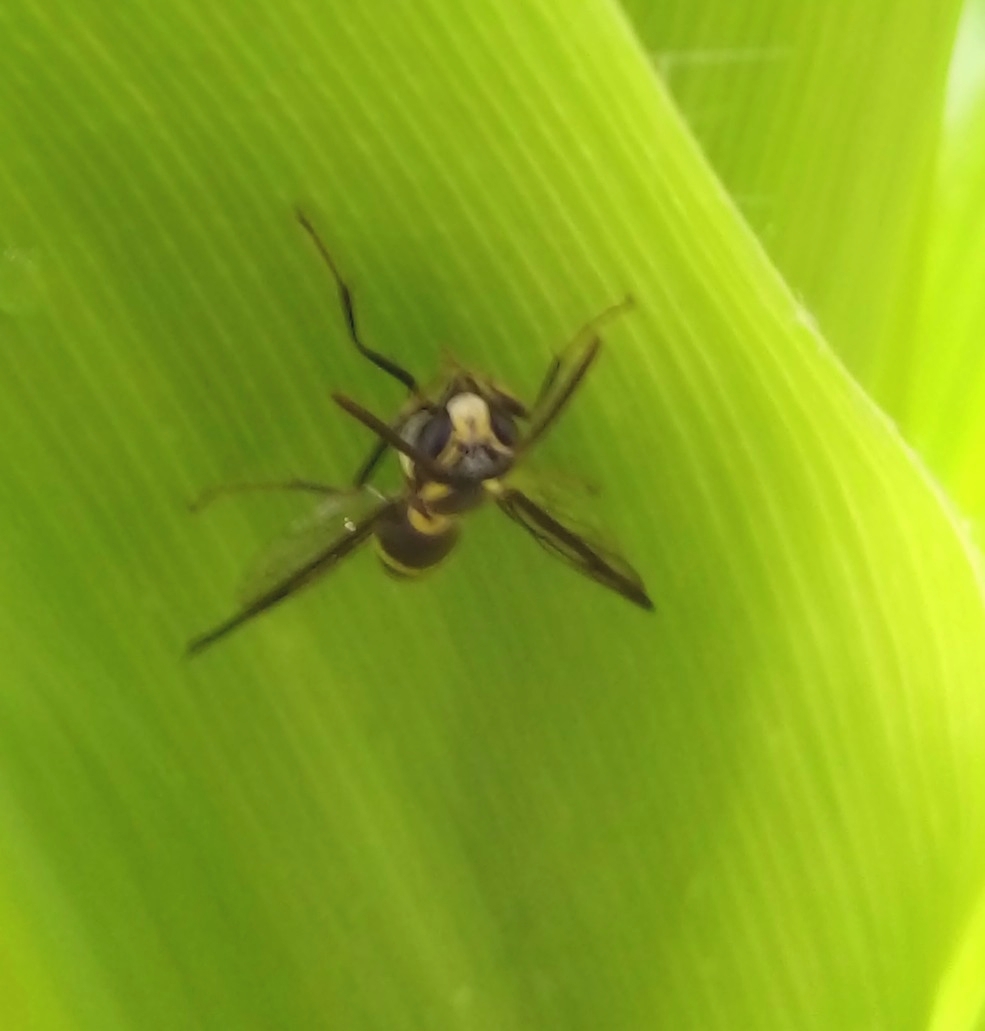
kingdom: Animalia
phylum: Arthropoda
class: Insecta
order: Hymenoptera
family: Eumenidae
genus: Polybia
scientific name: Polybia occidentalis
